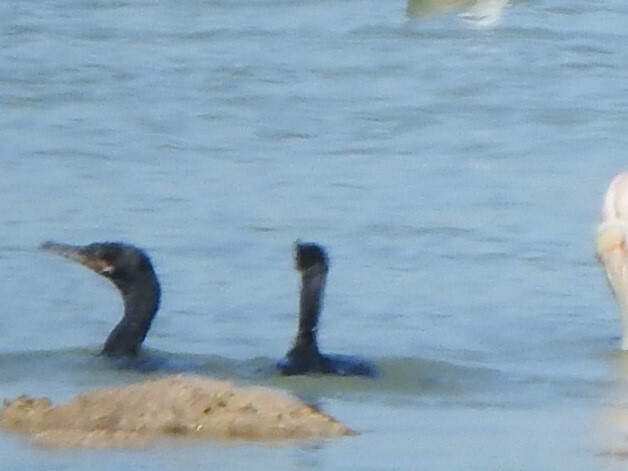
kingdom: Animalia
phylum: Chordata
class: Aves
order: Suliformes
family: Phalacrocoracidae
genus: Phalacrocorax
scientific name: Phalacrocorax brasilianus
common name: Neotropic cormorant
